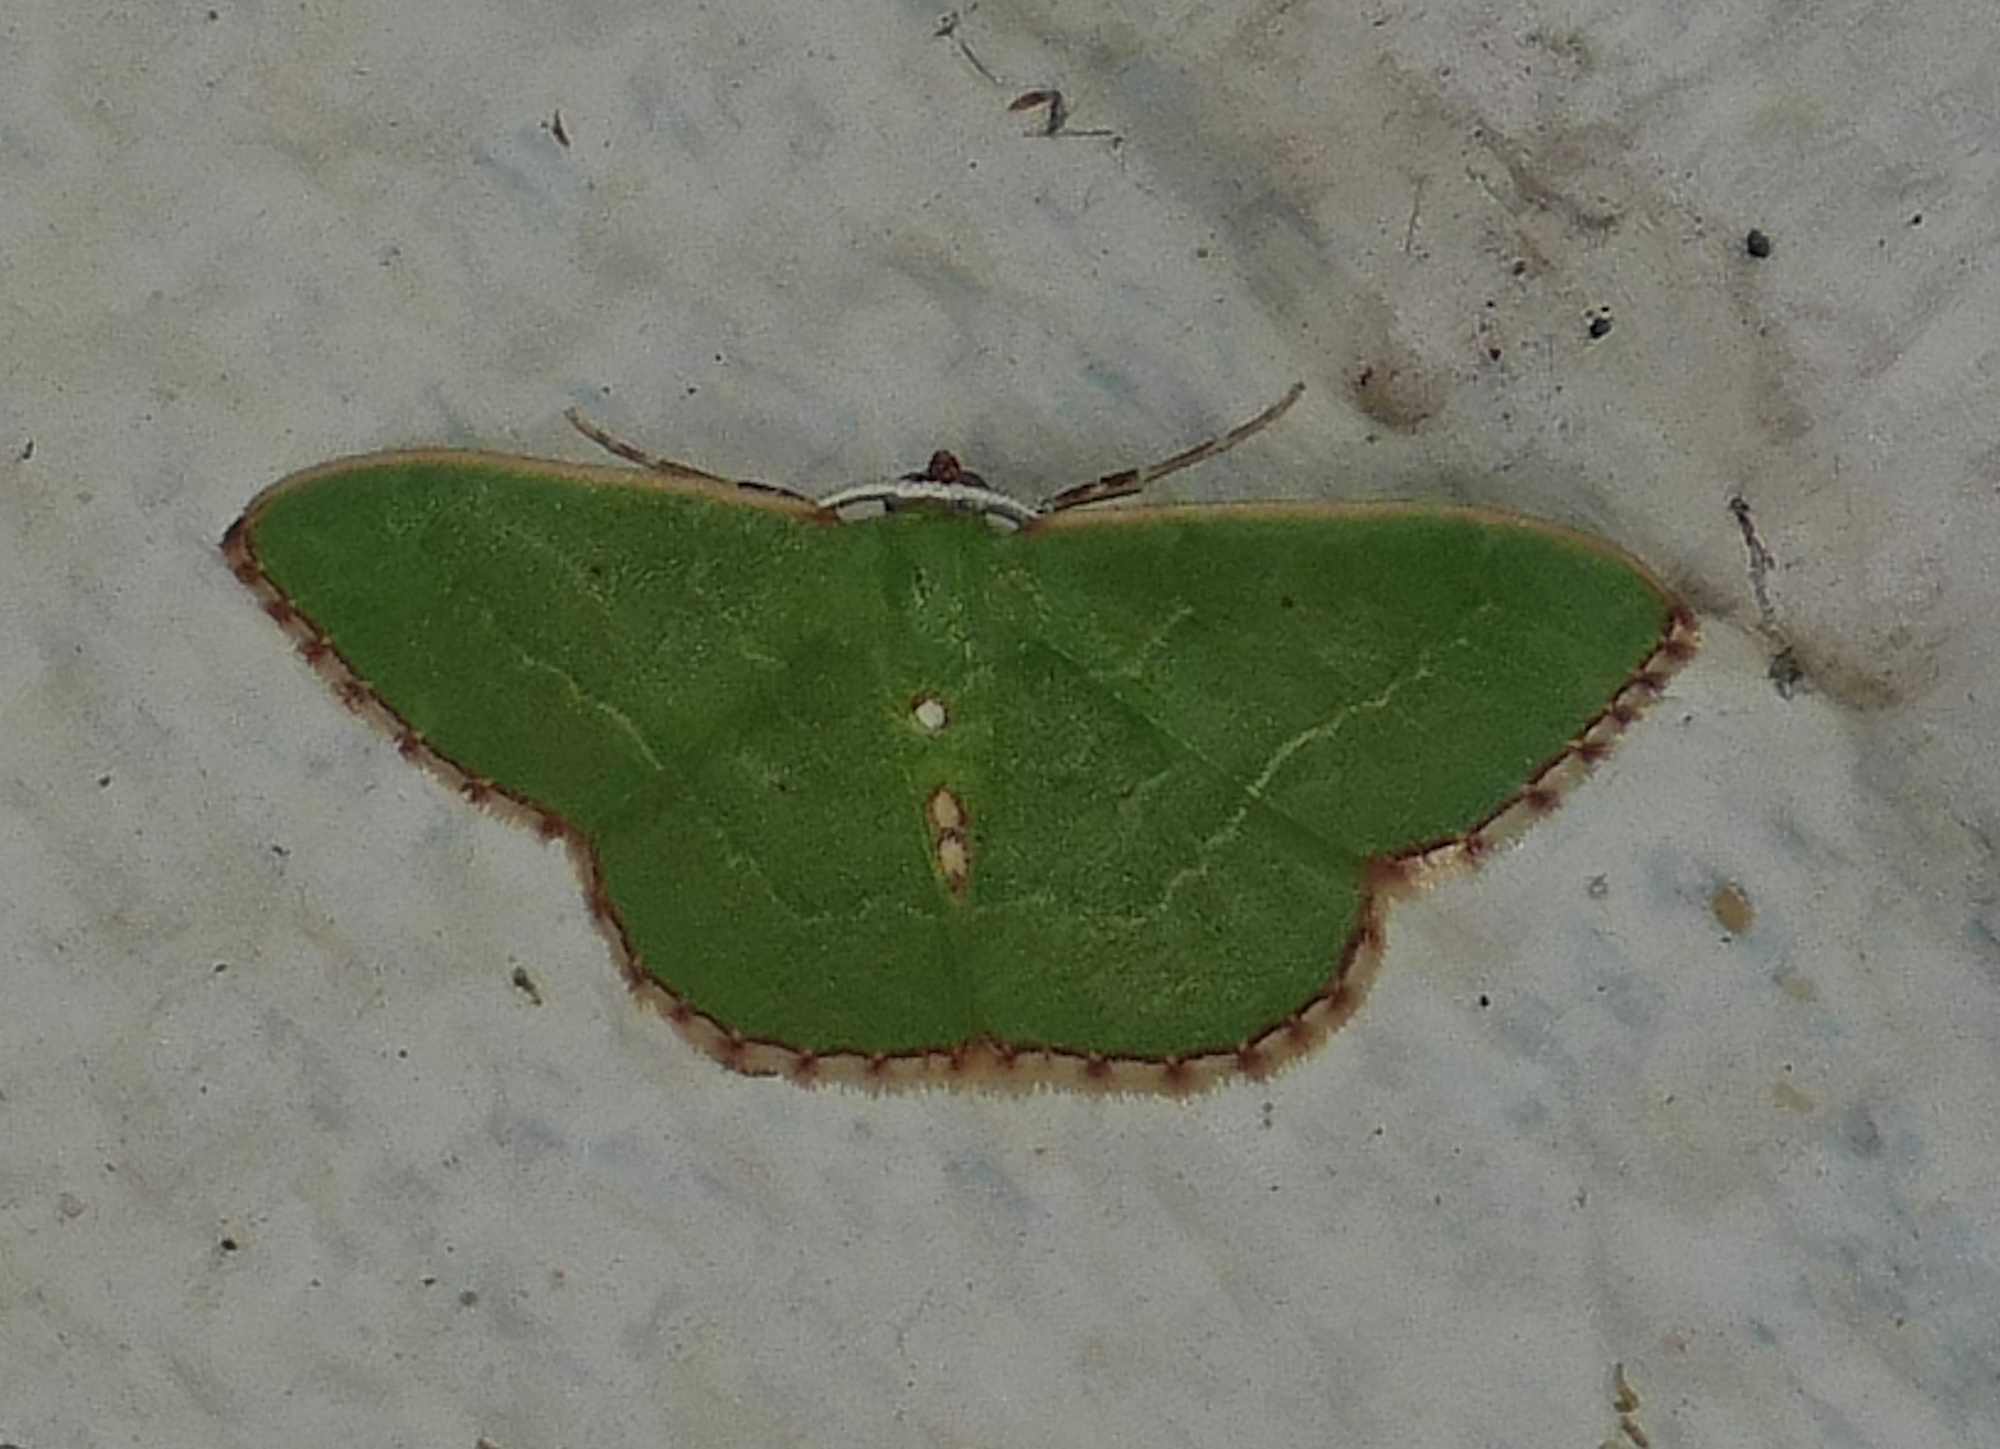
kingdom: Animalia
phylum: Arthropoda
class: Insecta
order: Lepidoptera
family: Geometridae
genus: Nemoria
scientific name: Nemoria lixaria
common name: Red-bordered emerald
